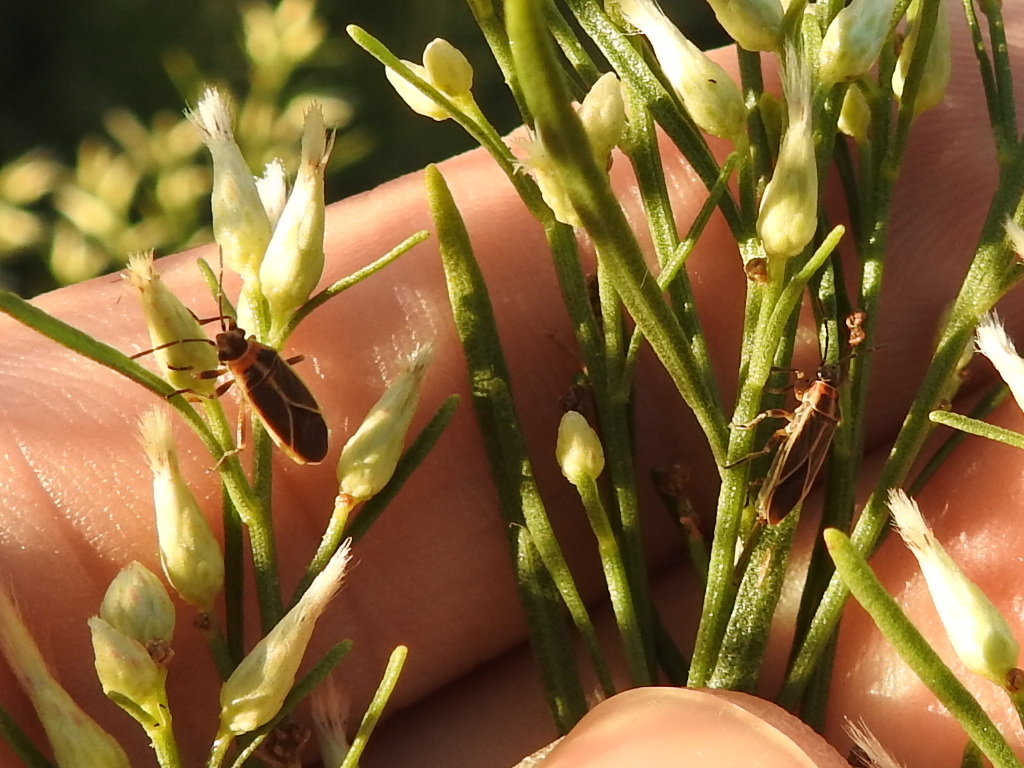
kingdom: Animalia
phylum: Arthropoda
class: Insecta
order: Hemiptera
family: Lygaeidae
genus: Ochrimnus
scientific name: Ochrimnus mimulus
